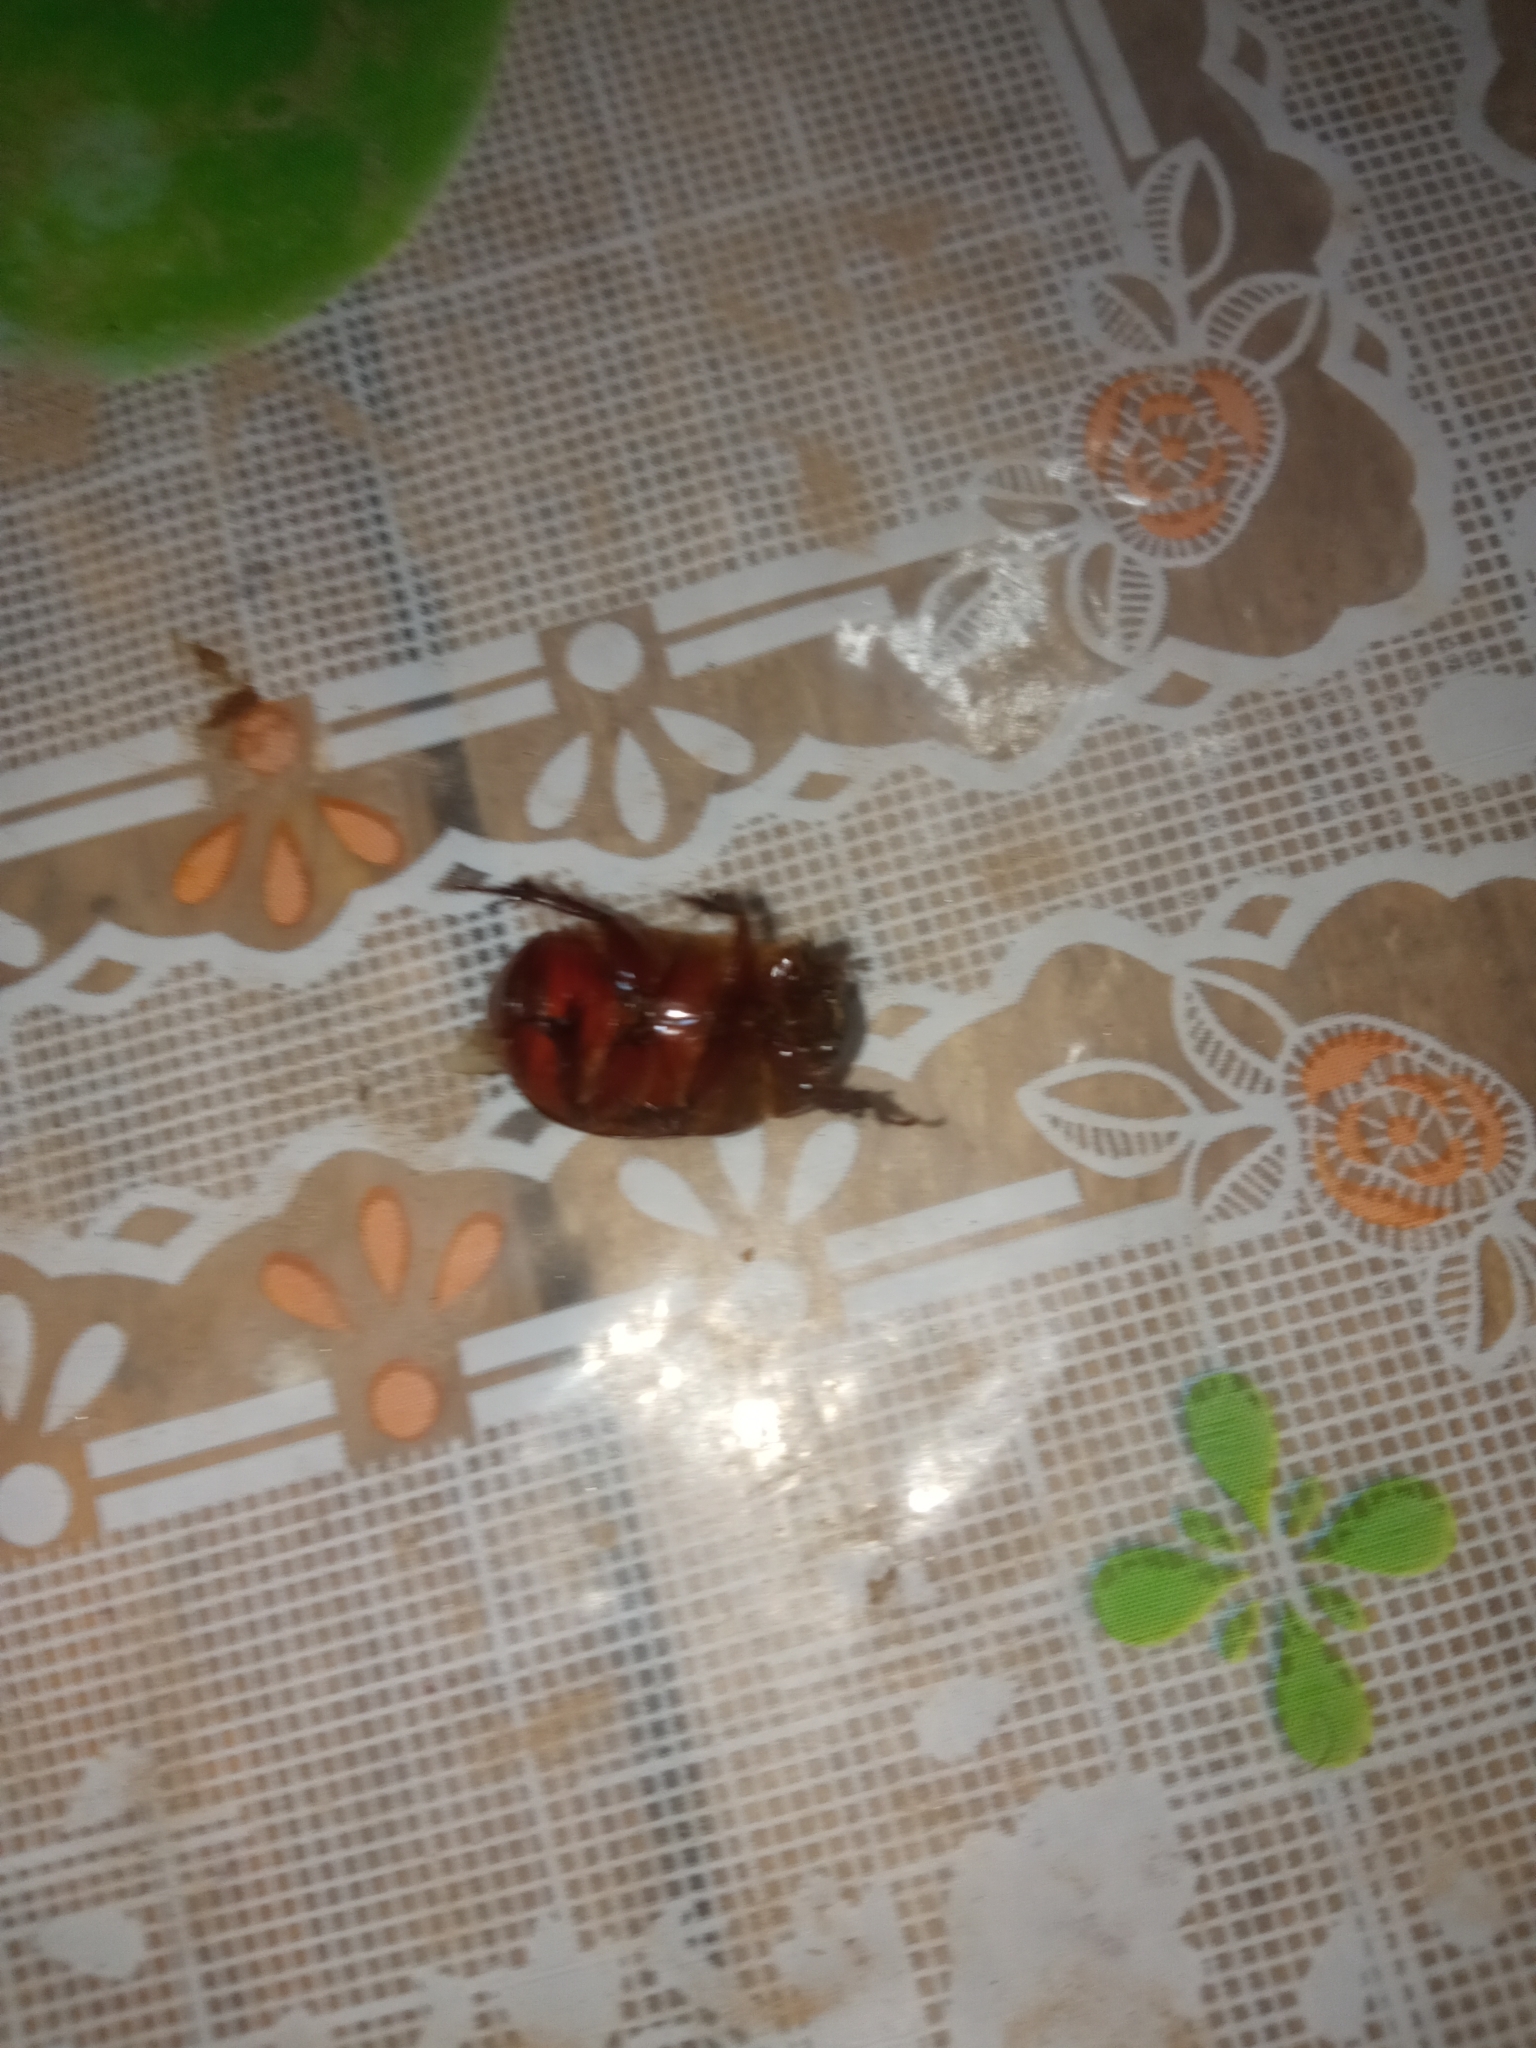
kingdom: Animalia
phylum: Arthropoda
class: Insecta
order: Coleoptera
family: Scarabaeidae
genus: Ligyrus
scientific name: Ligyrus ruginasus
